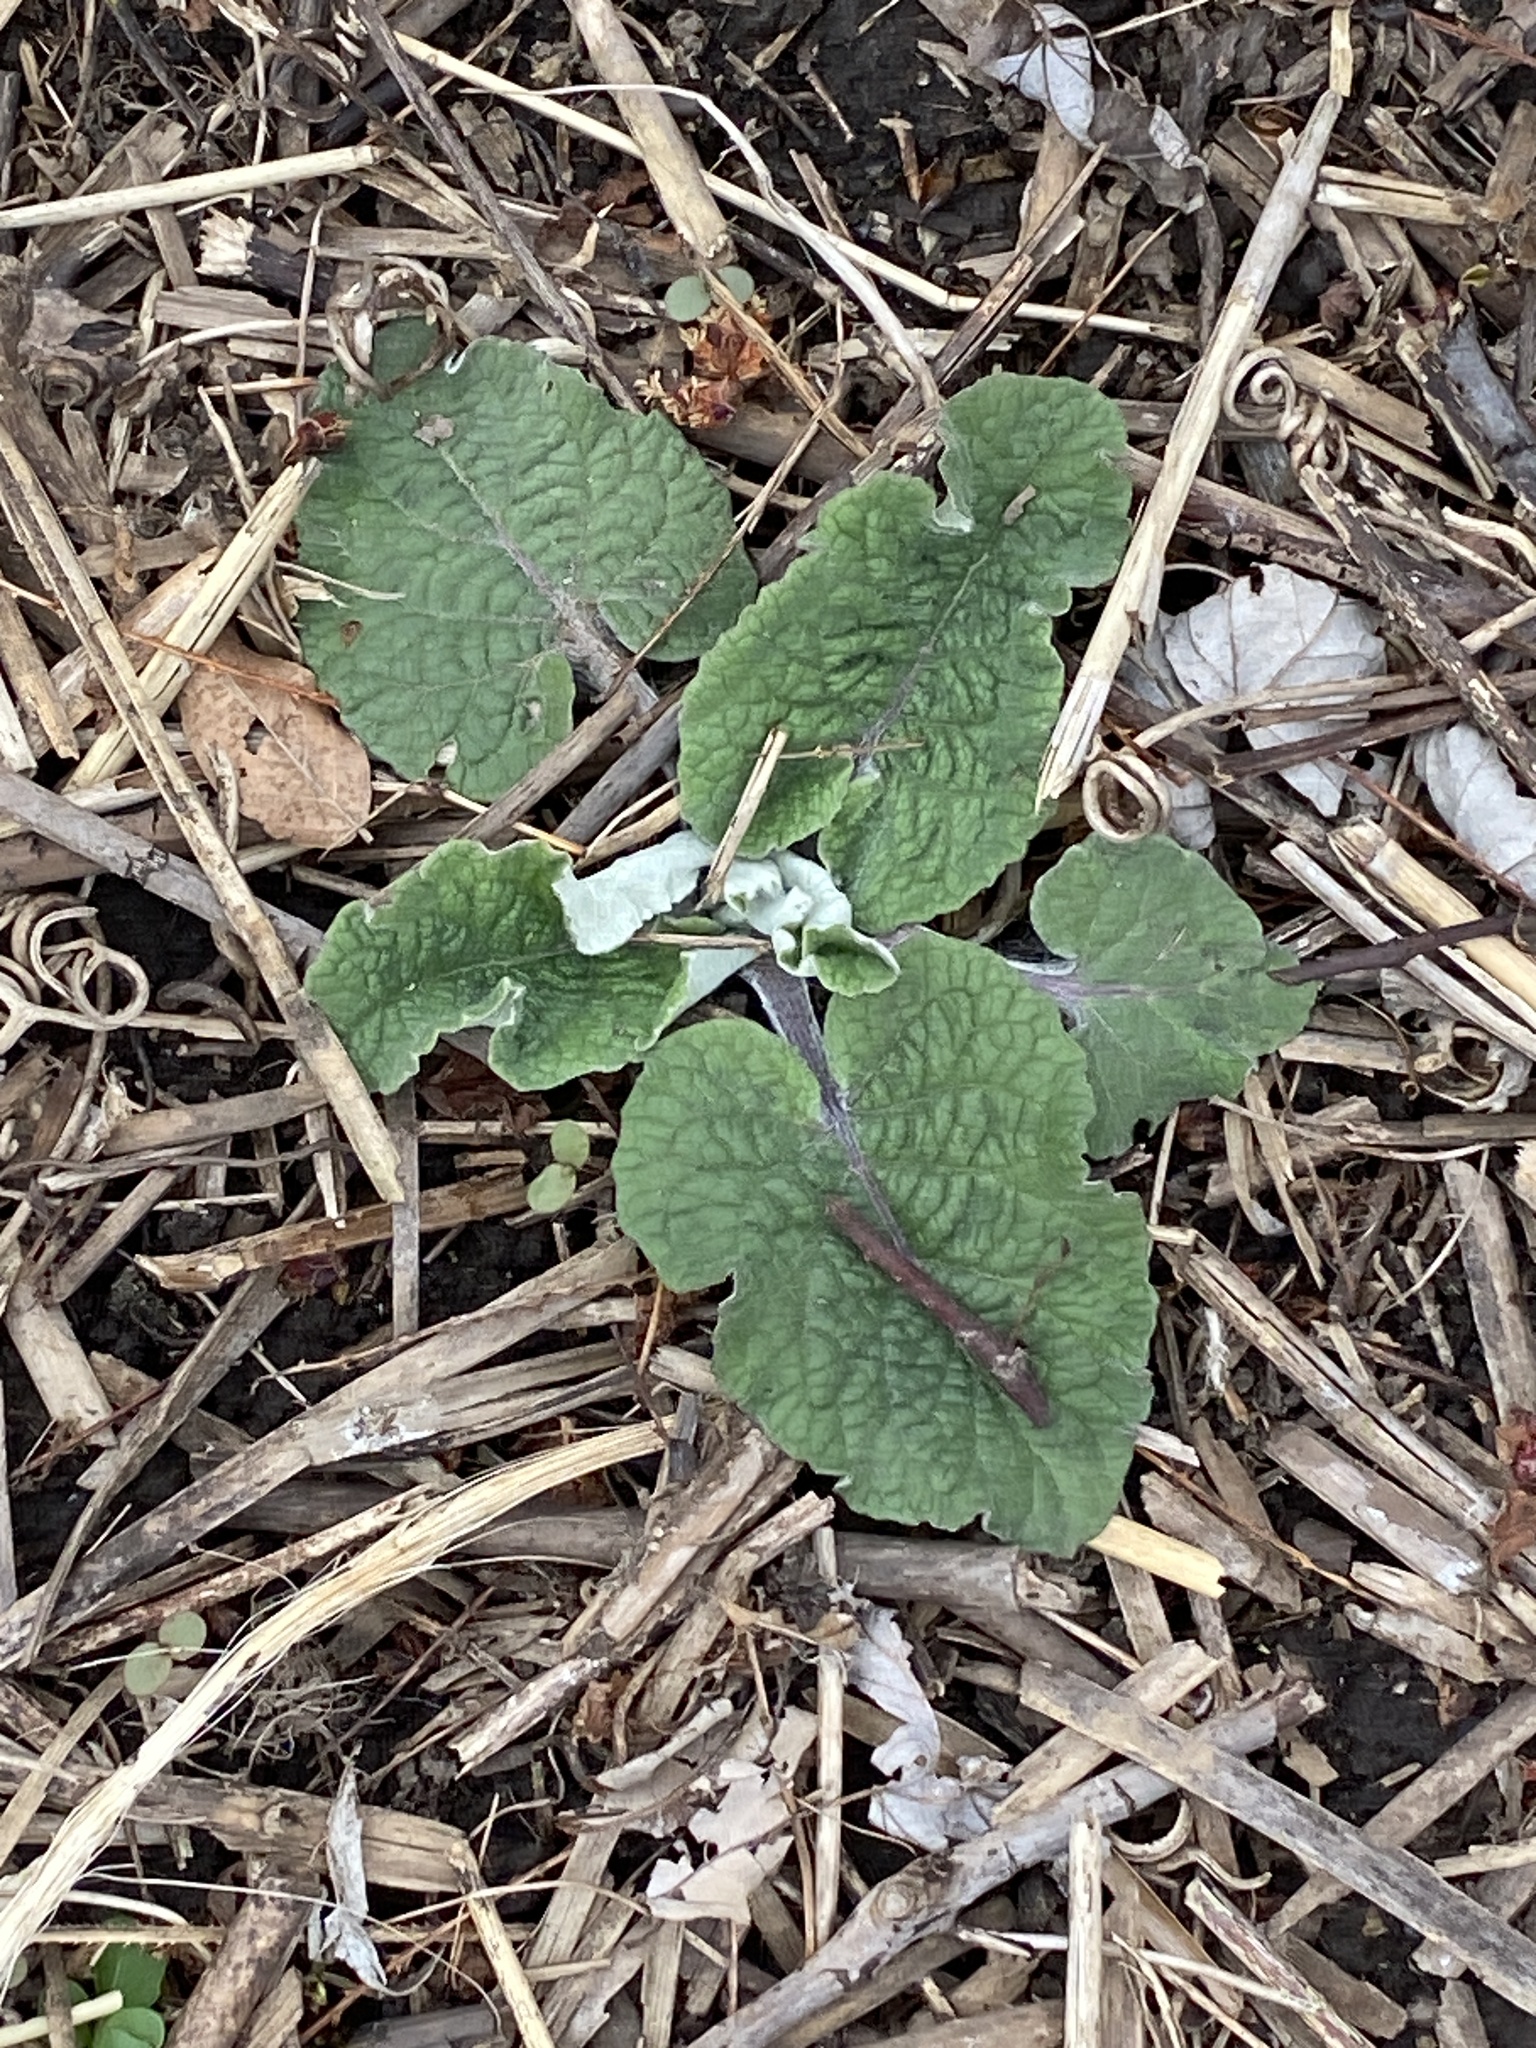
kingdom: Plantae
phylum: Tracheophyta
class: Magnoliopsida
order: Asterales
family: Asteraceae
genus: Arctium
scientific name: Arctium
